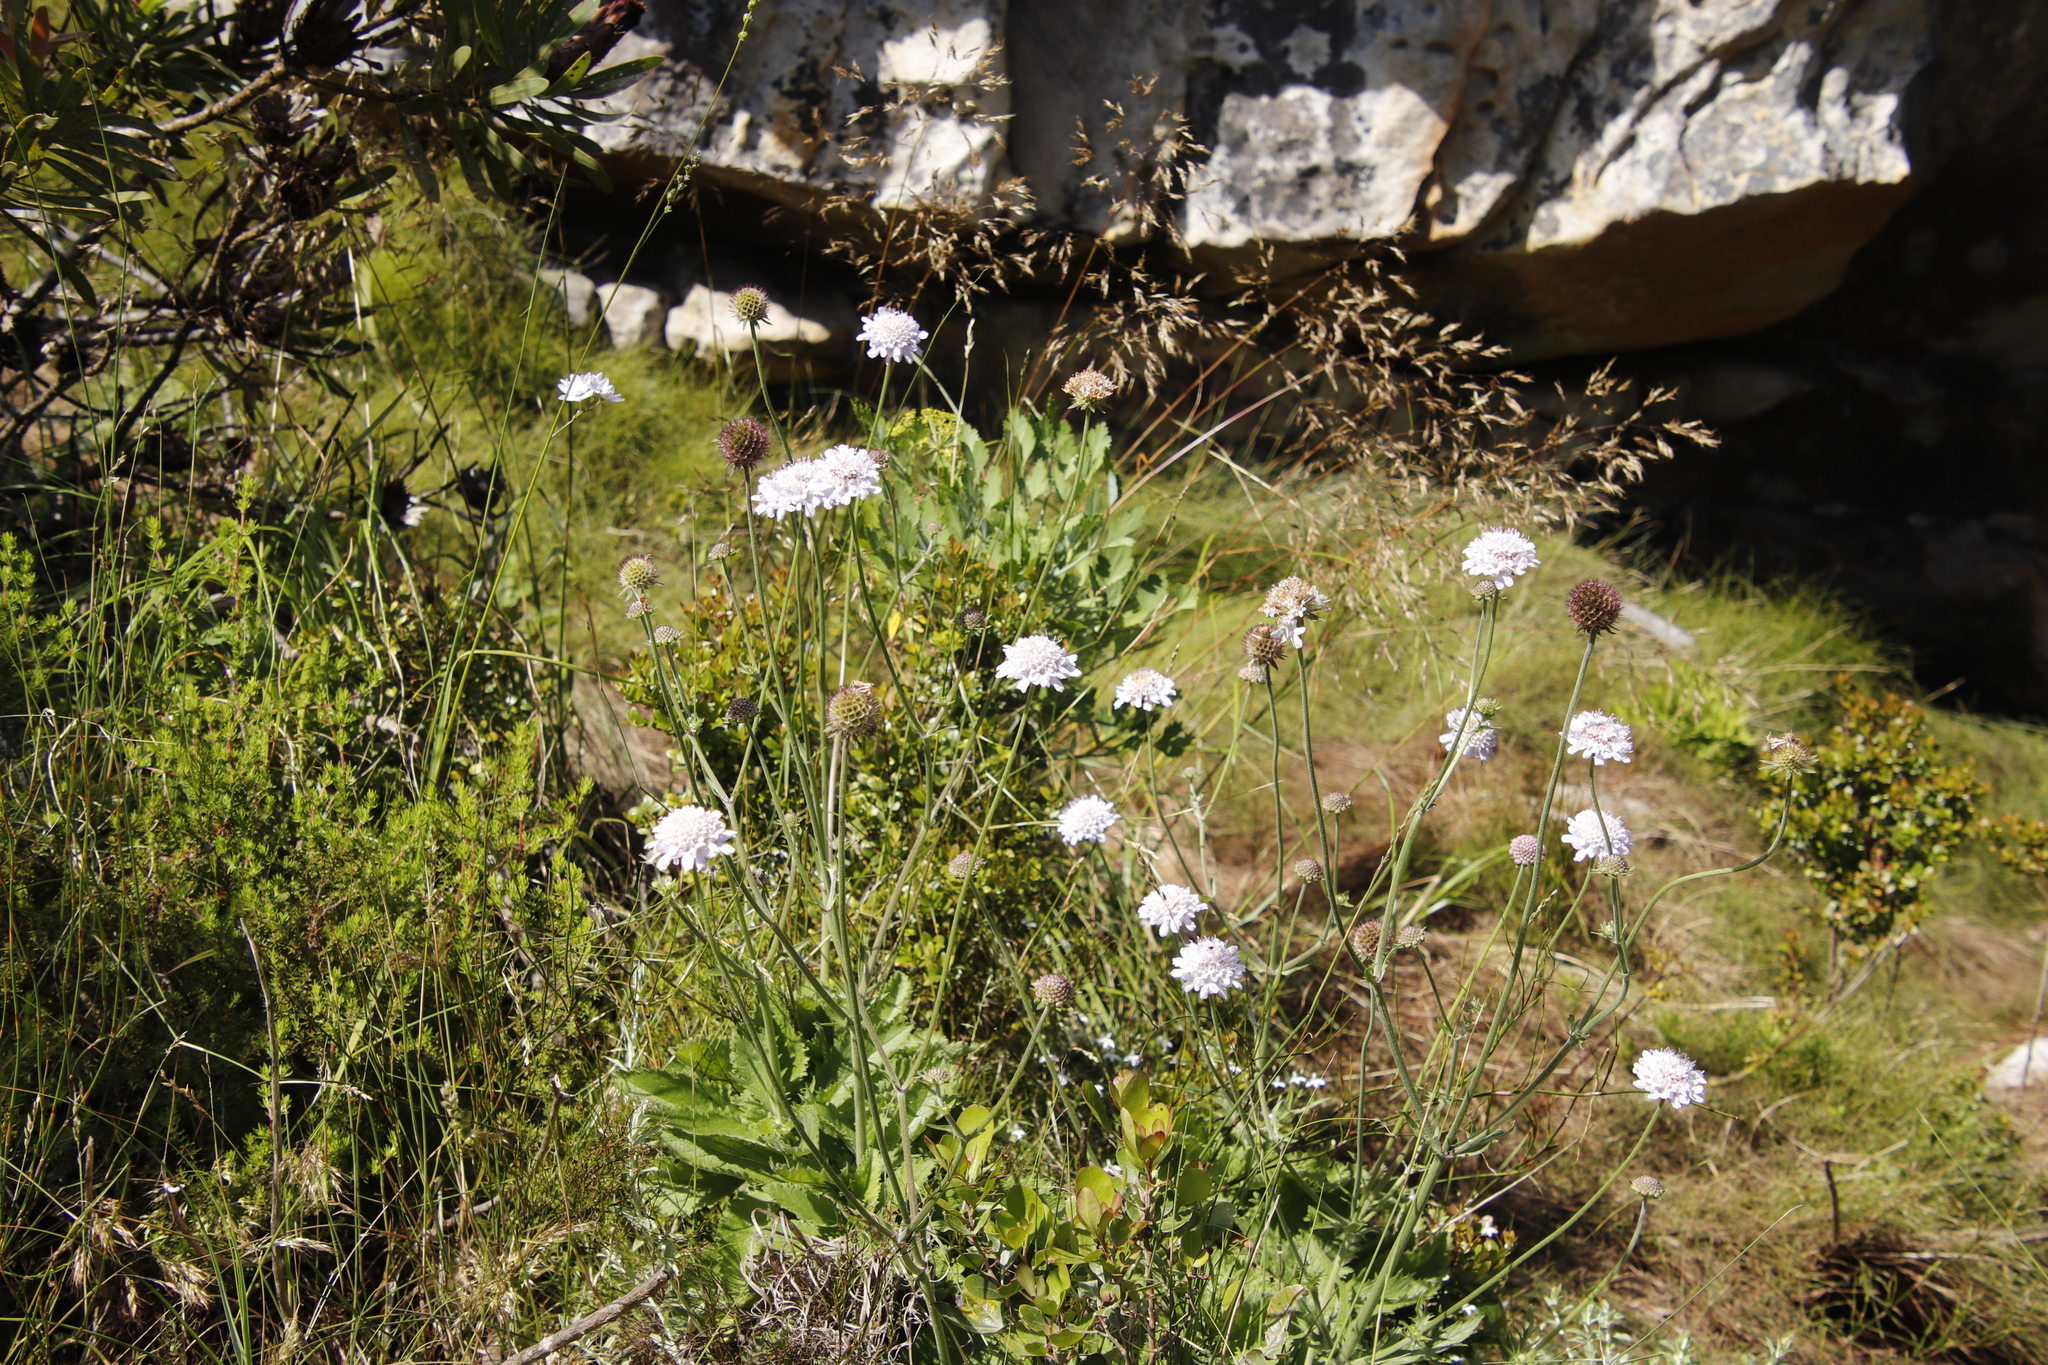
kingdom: Plantae
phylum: Tracheophyta
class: Magnoliopsida
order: Dipsacales
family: Caprifoliaceae
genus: Scabiosa
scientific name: Scabiosa africana
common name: Cape scabious
